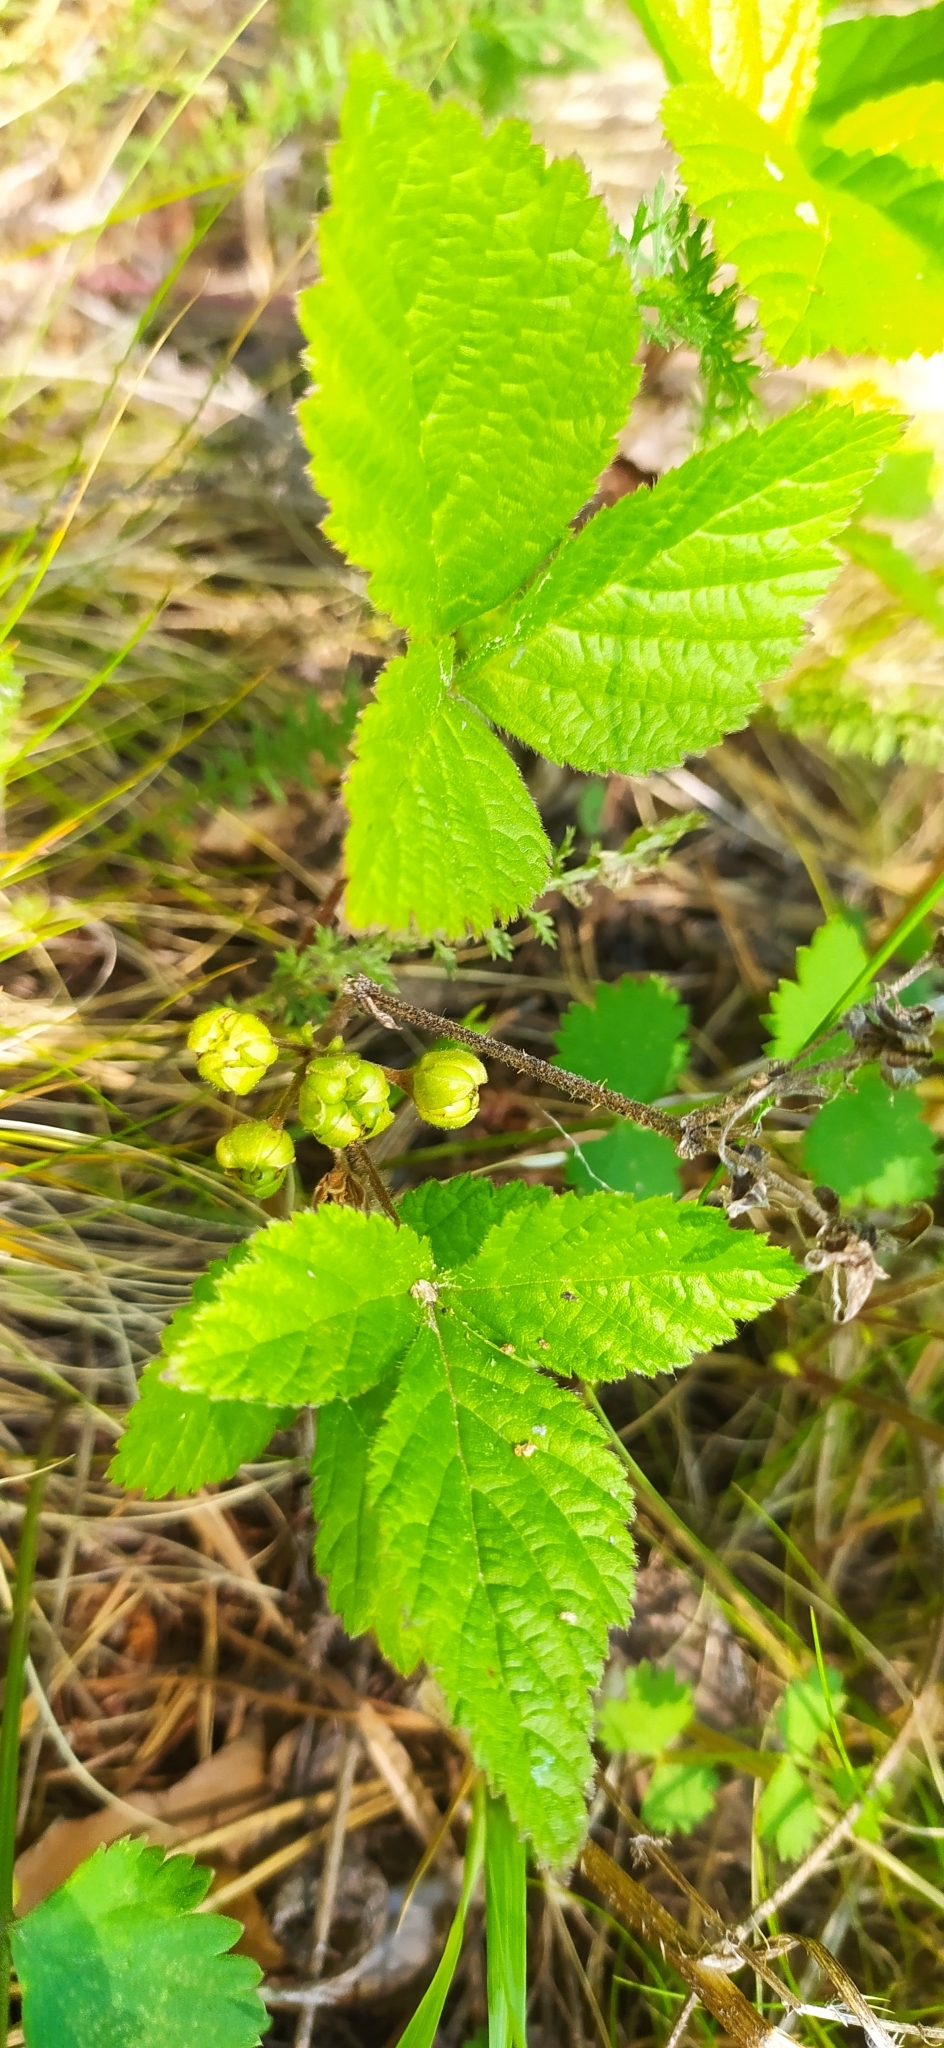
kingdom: Plantae
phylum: Tracheophyta
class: Magnoliopsida
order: Rosales
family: Rosaceae
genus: Rubus
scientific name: Rubus saxatilis
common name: Stone bramble
